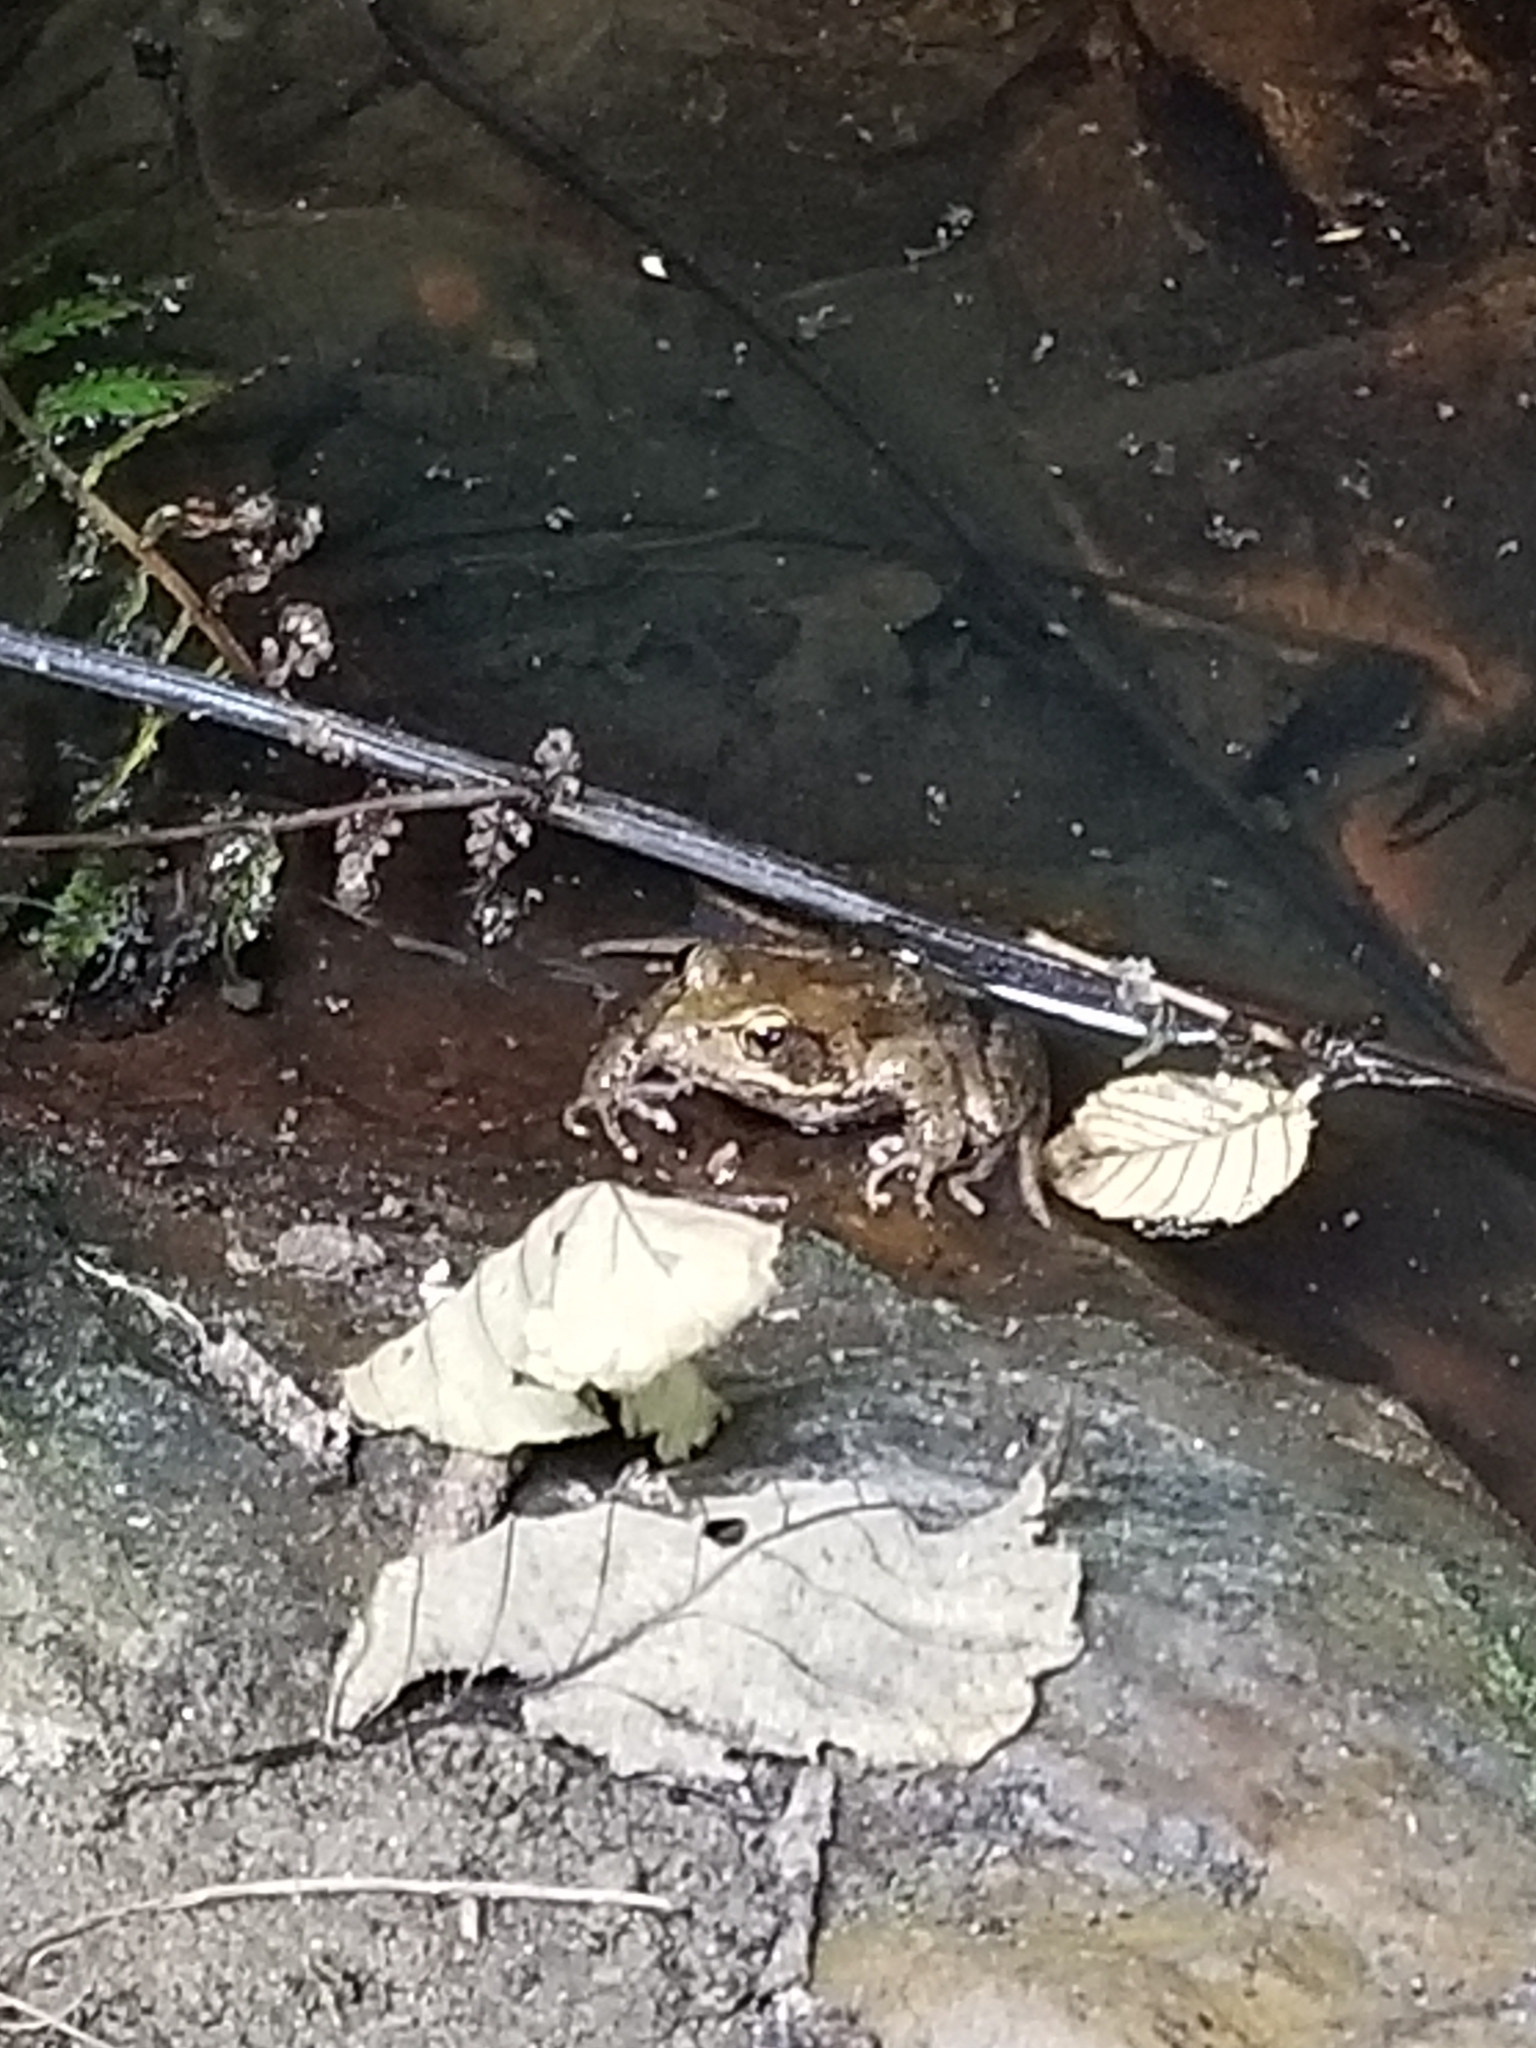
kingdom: Animalia
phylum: Chordata
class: Amphibia
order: Anura
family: Ranidae
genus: Rana
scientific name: Rana aurora
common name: Red-legged frog
